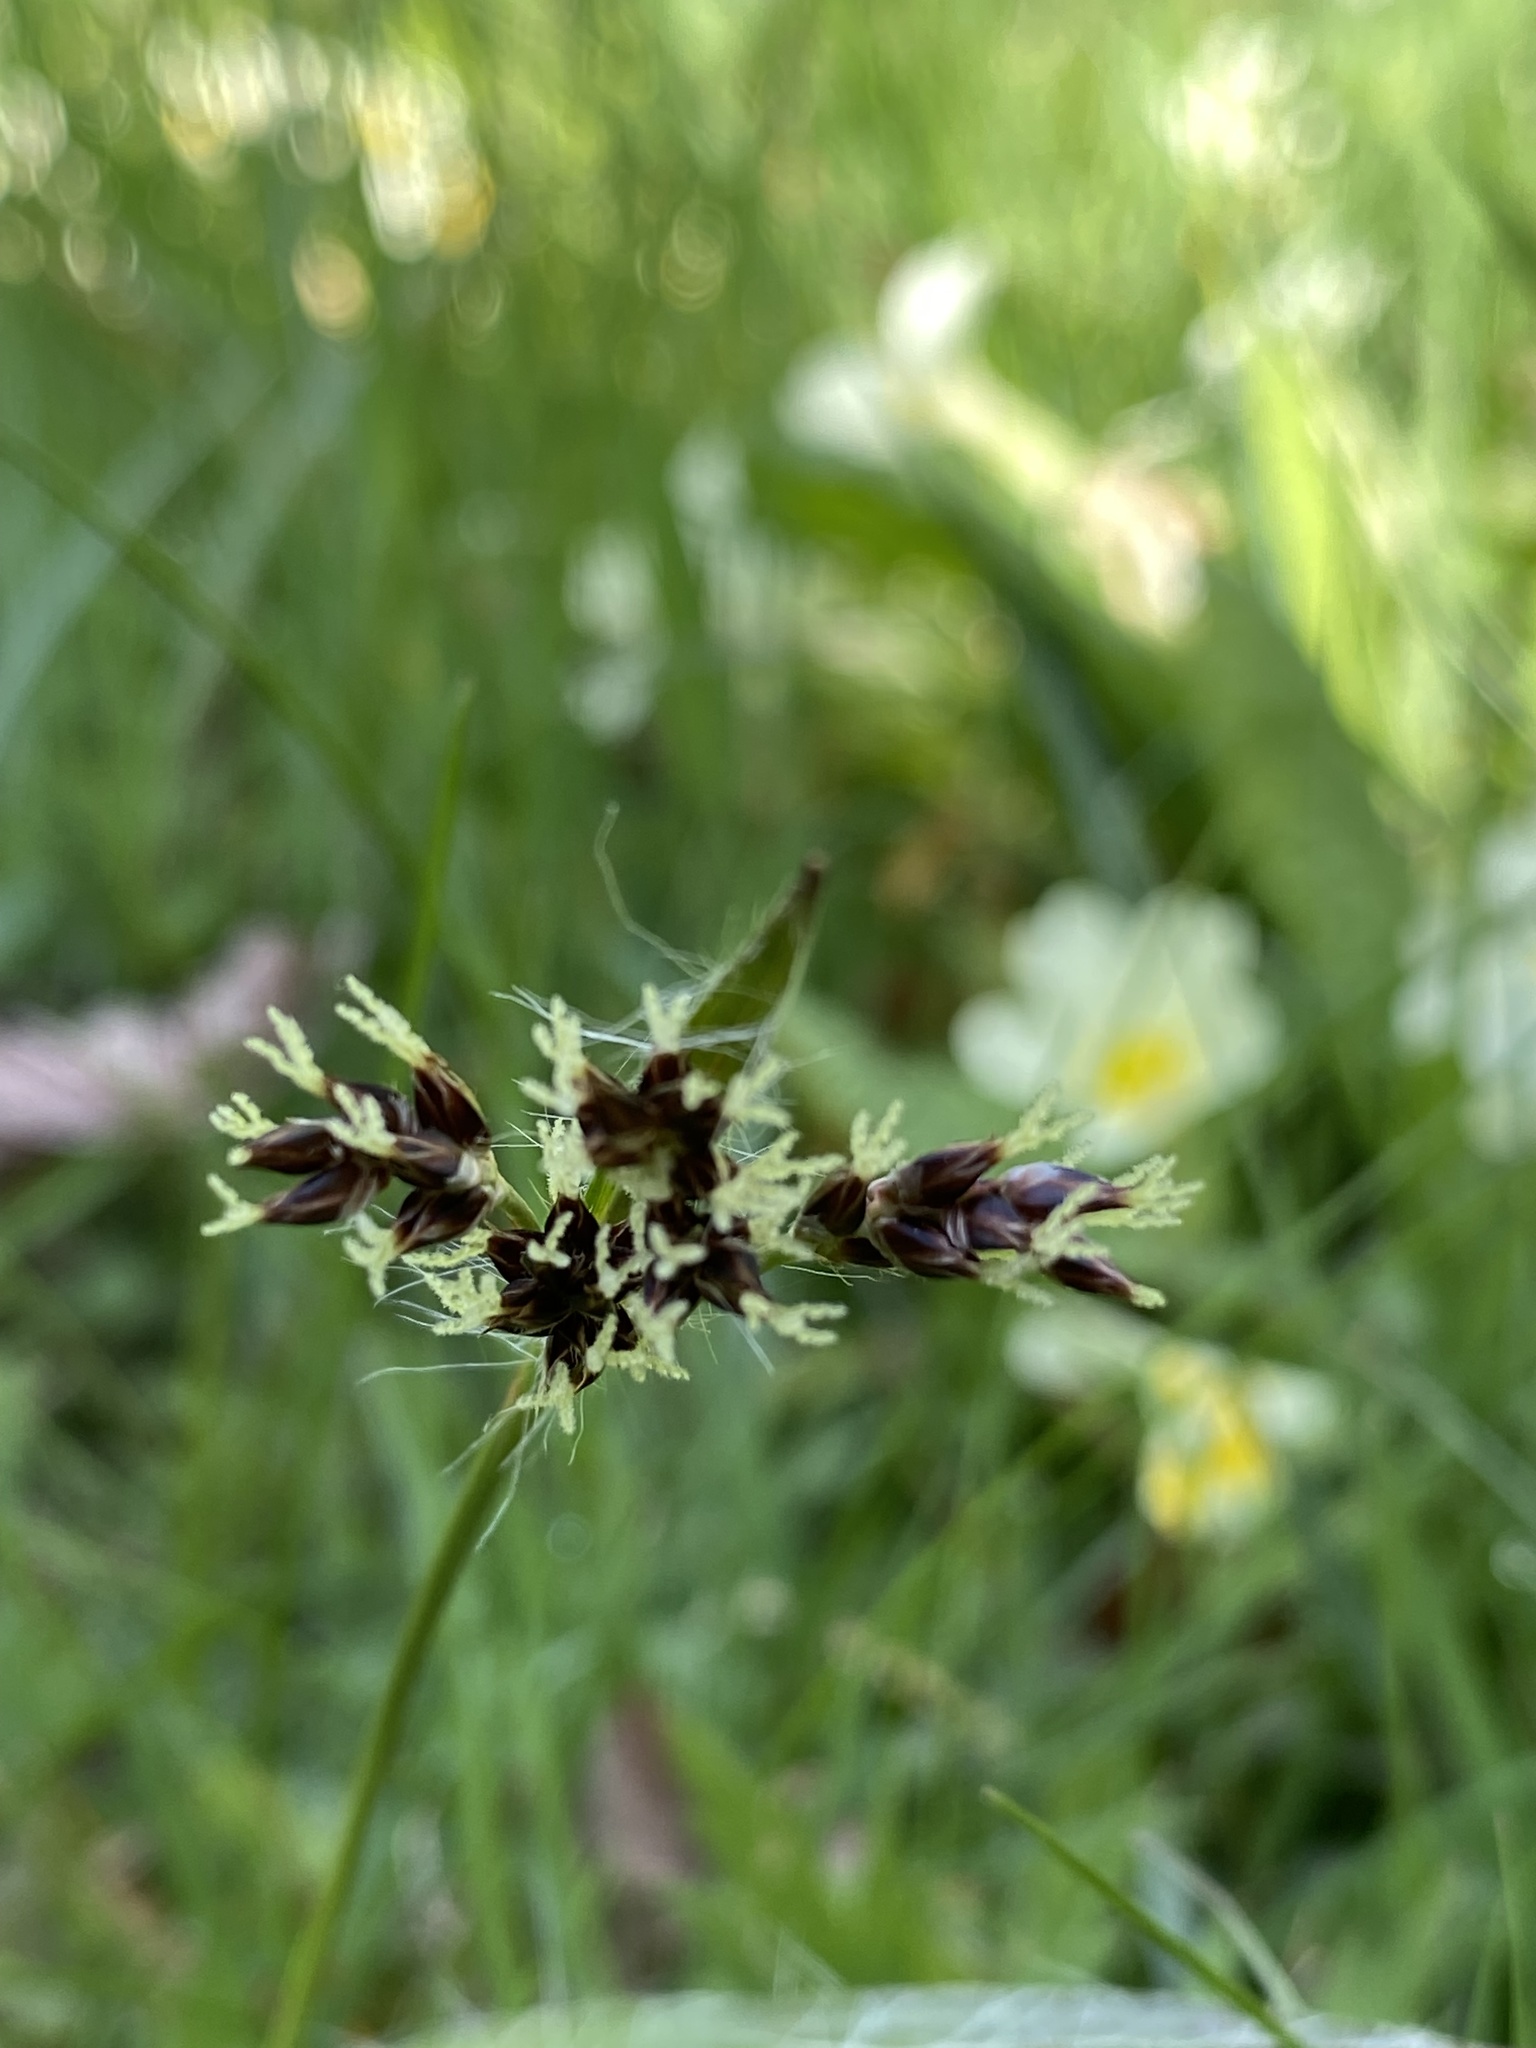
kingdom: Plantae
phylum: Tracheophyta
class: Liliopsida
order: Poales
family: Juncaceae
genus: Luzula
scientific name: Luzula campestris
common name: Field wood-rush
